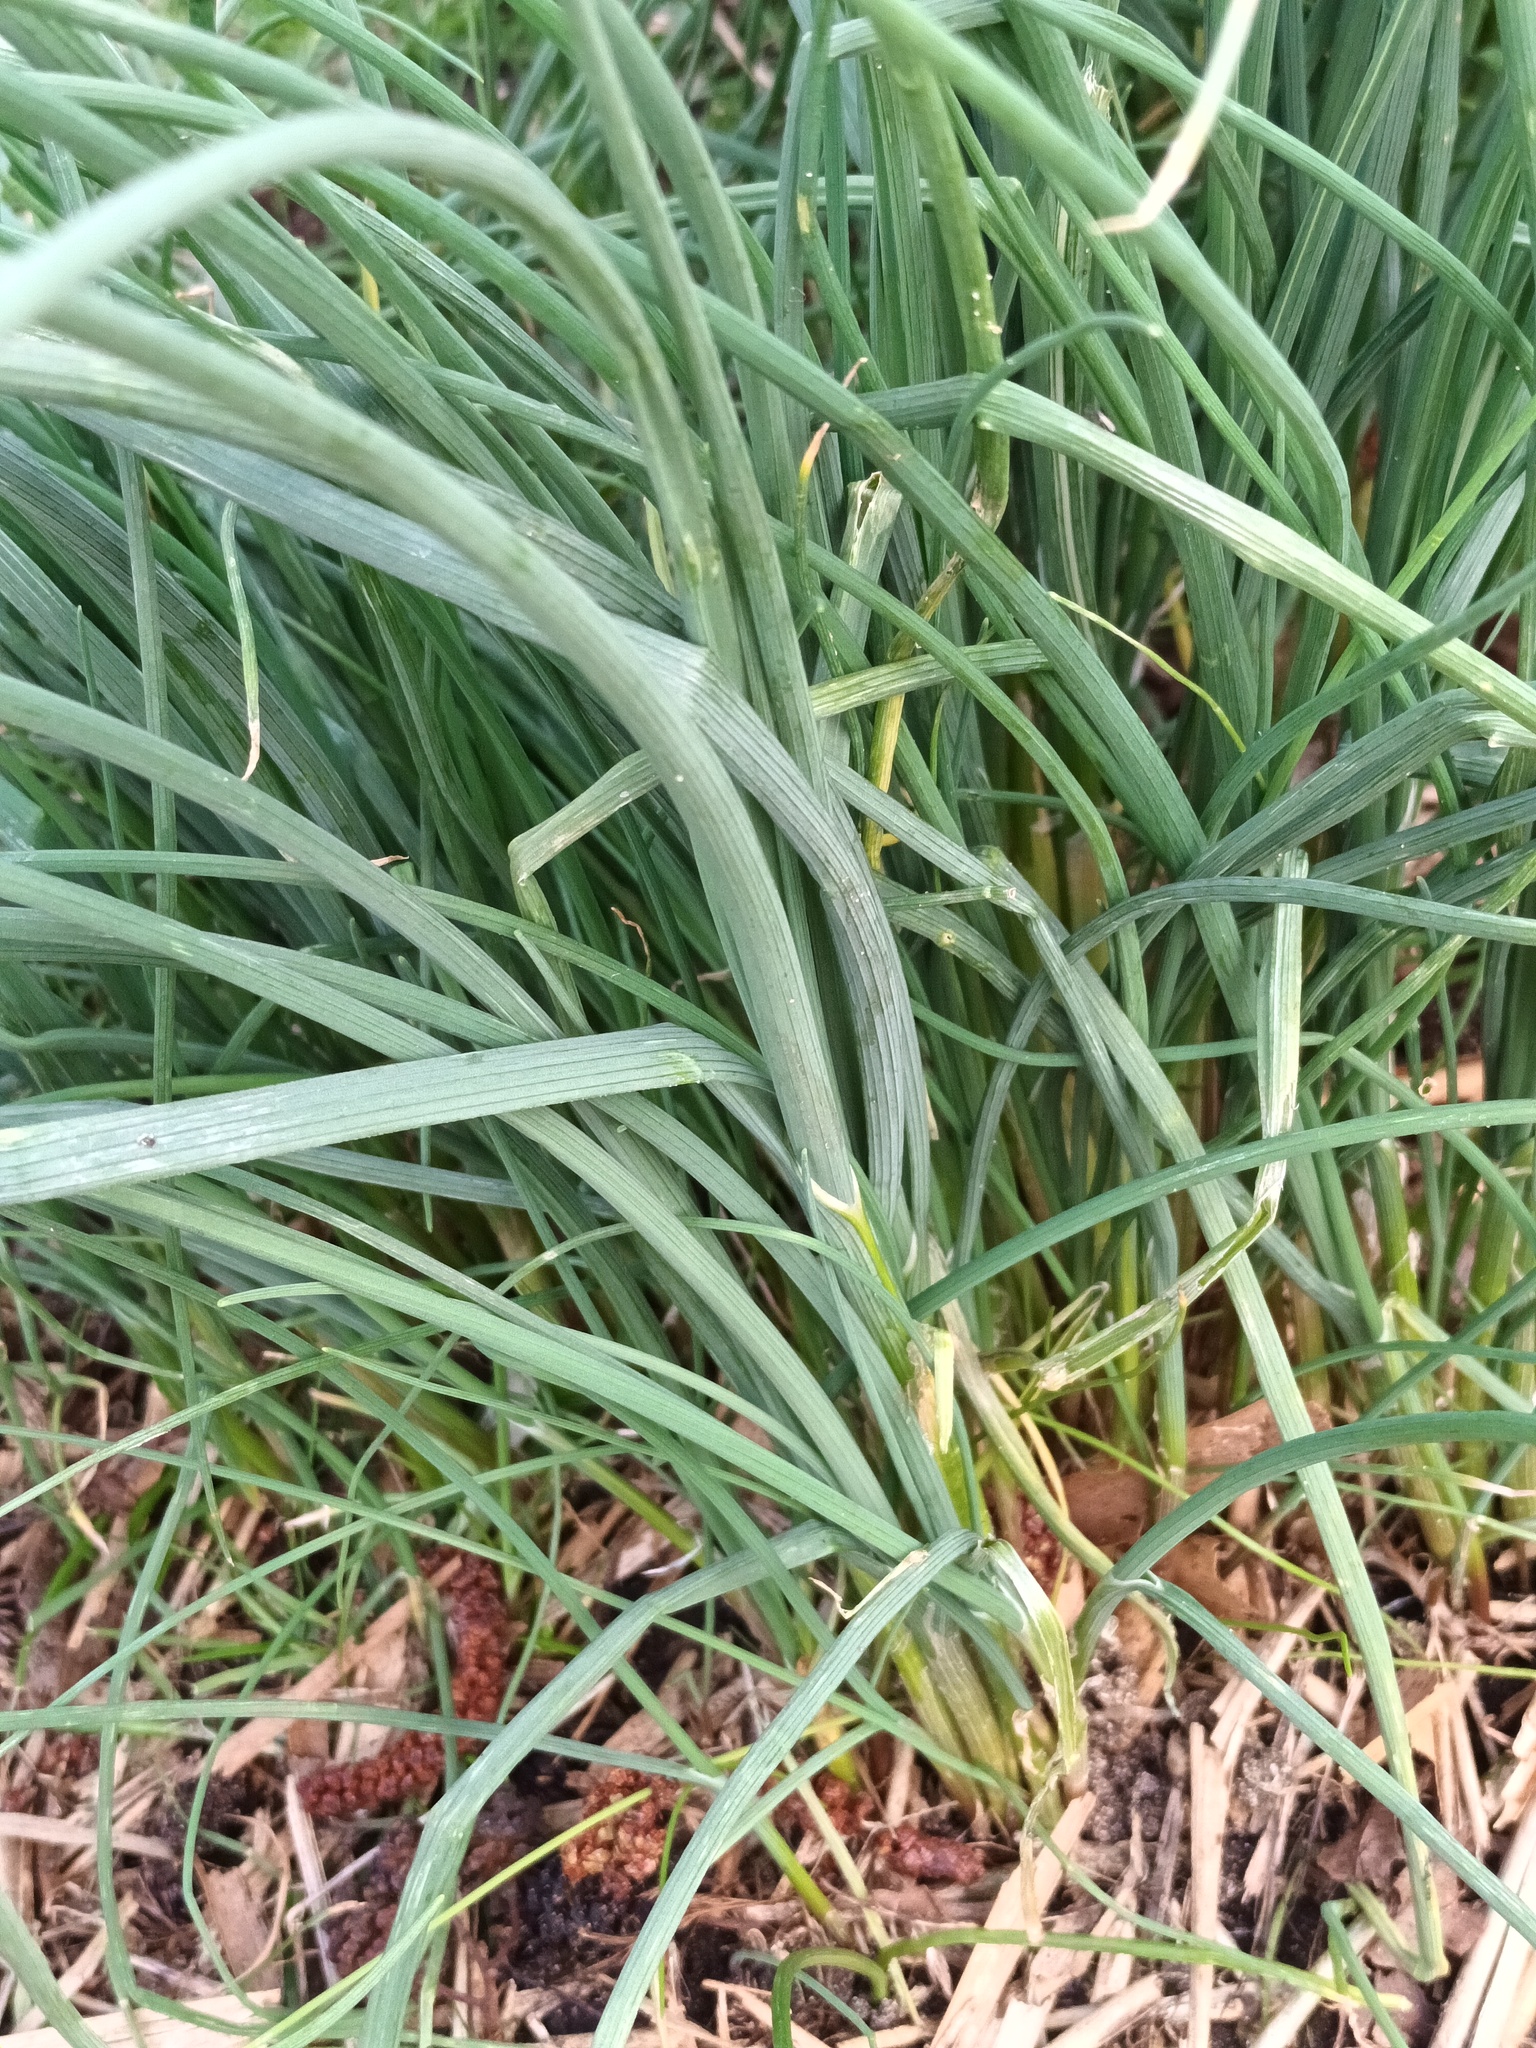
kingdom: Plantae
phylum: Tracheophyta
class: Liliopsida
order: Asparagales
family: Amaryllidaceae
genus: Allium
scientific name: Allium vineale
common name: Crow garlic
